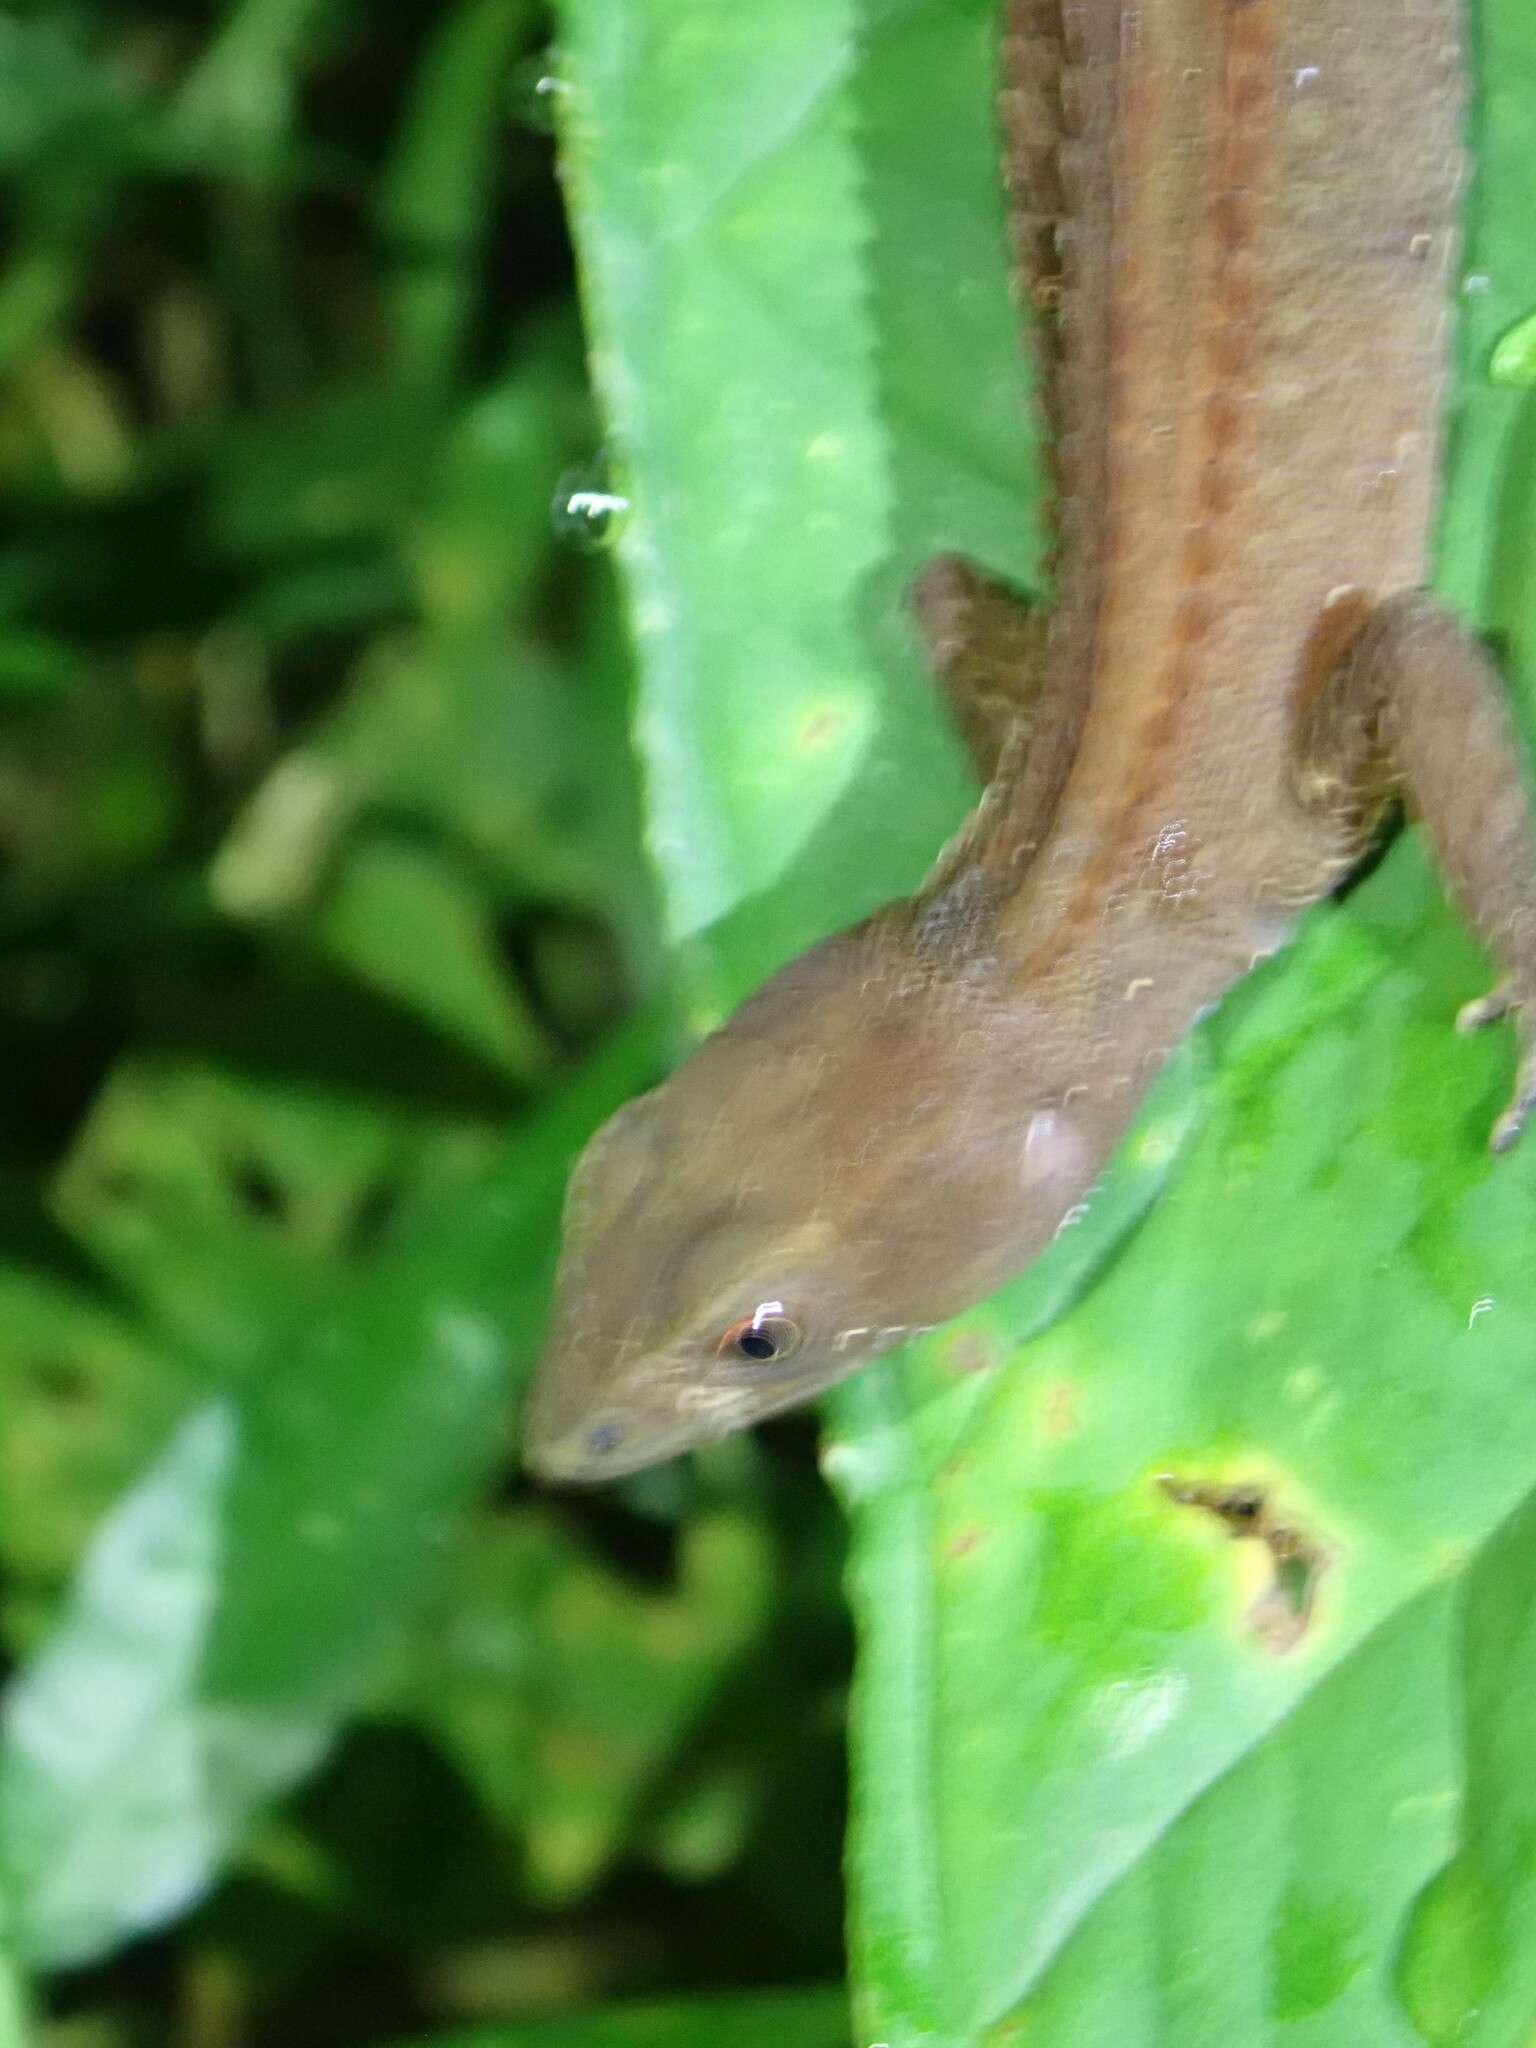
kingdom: Animalia
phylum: Chordata
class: Squamata
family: Gymnophthalmidae
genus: Gelanesaurus
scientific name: Gelanesaurus flavogularis
